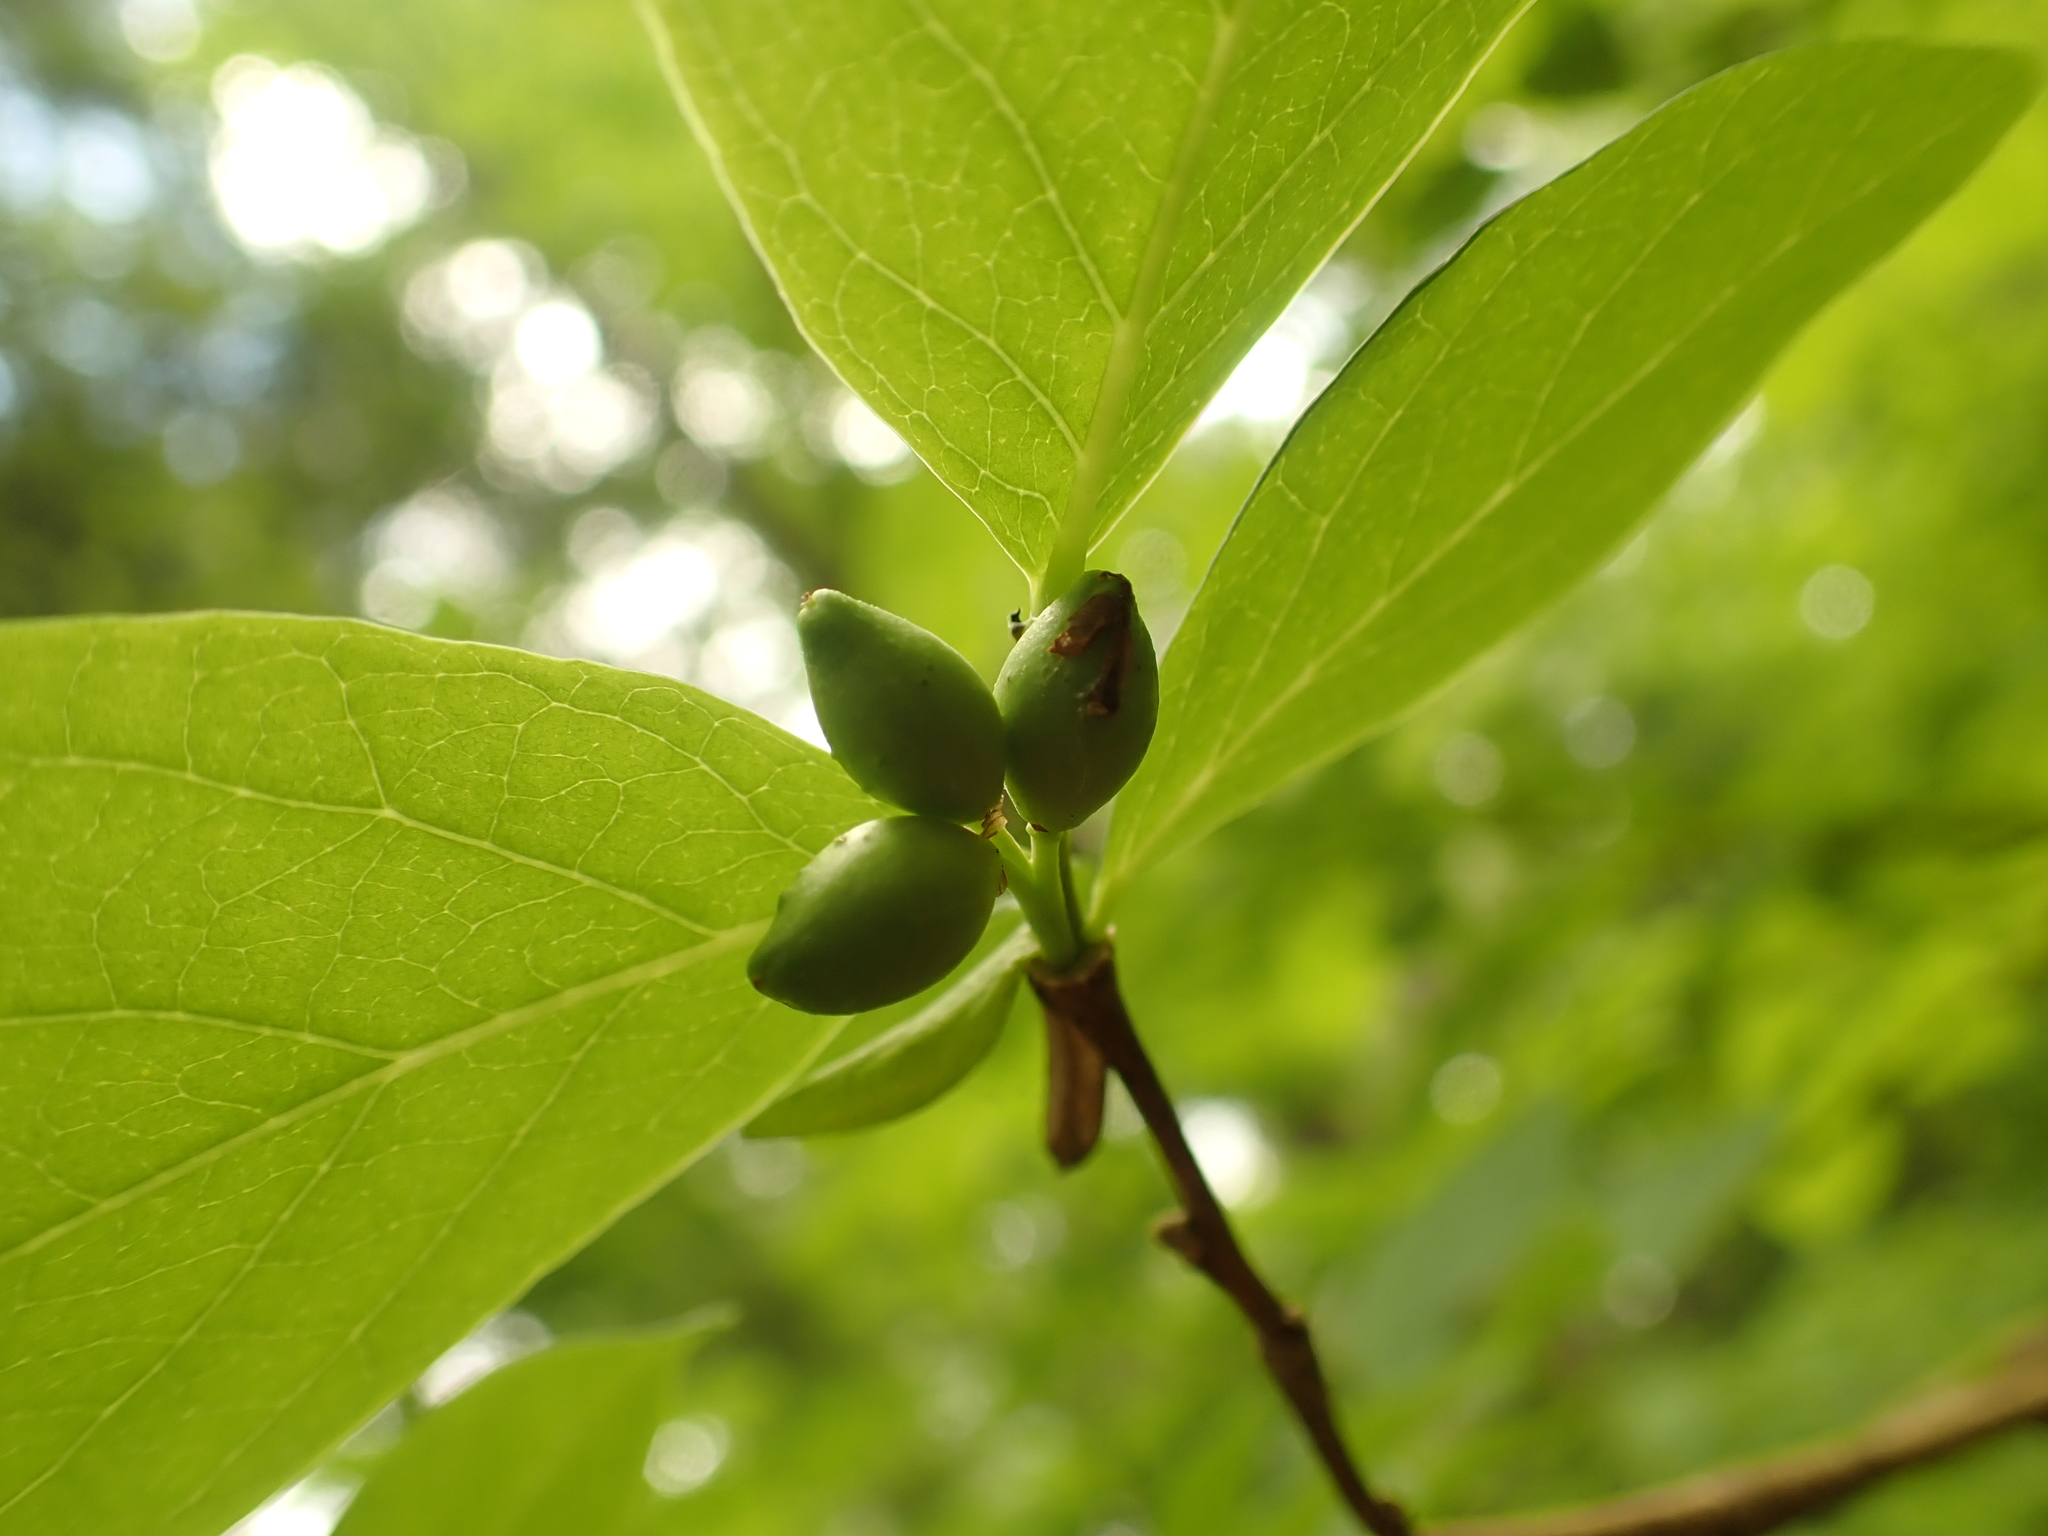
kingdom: Plantae
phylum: Tracheophyta
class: Magnoliopsida
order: Malvales
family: Thymelaeaceae
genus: Dirca
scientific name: Dirca palustris
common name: Leatherwood
